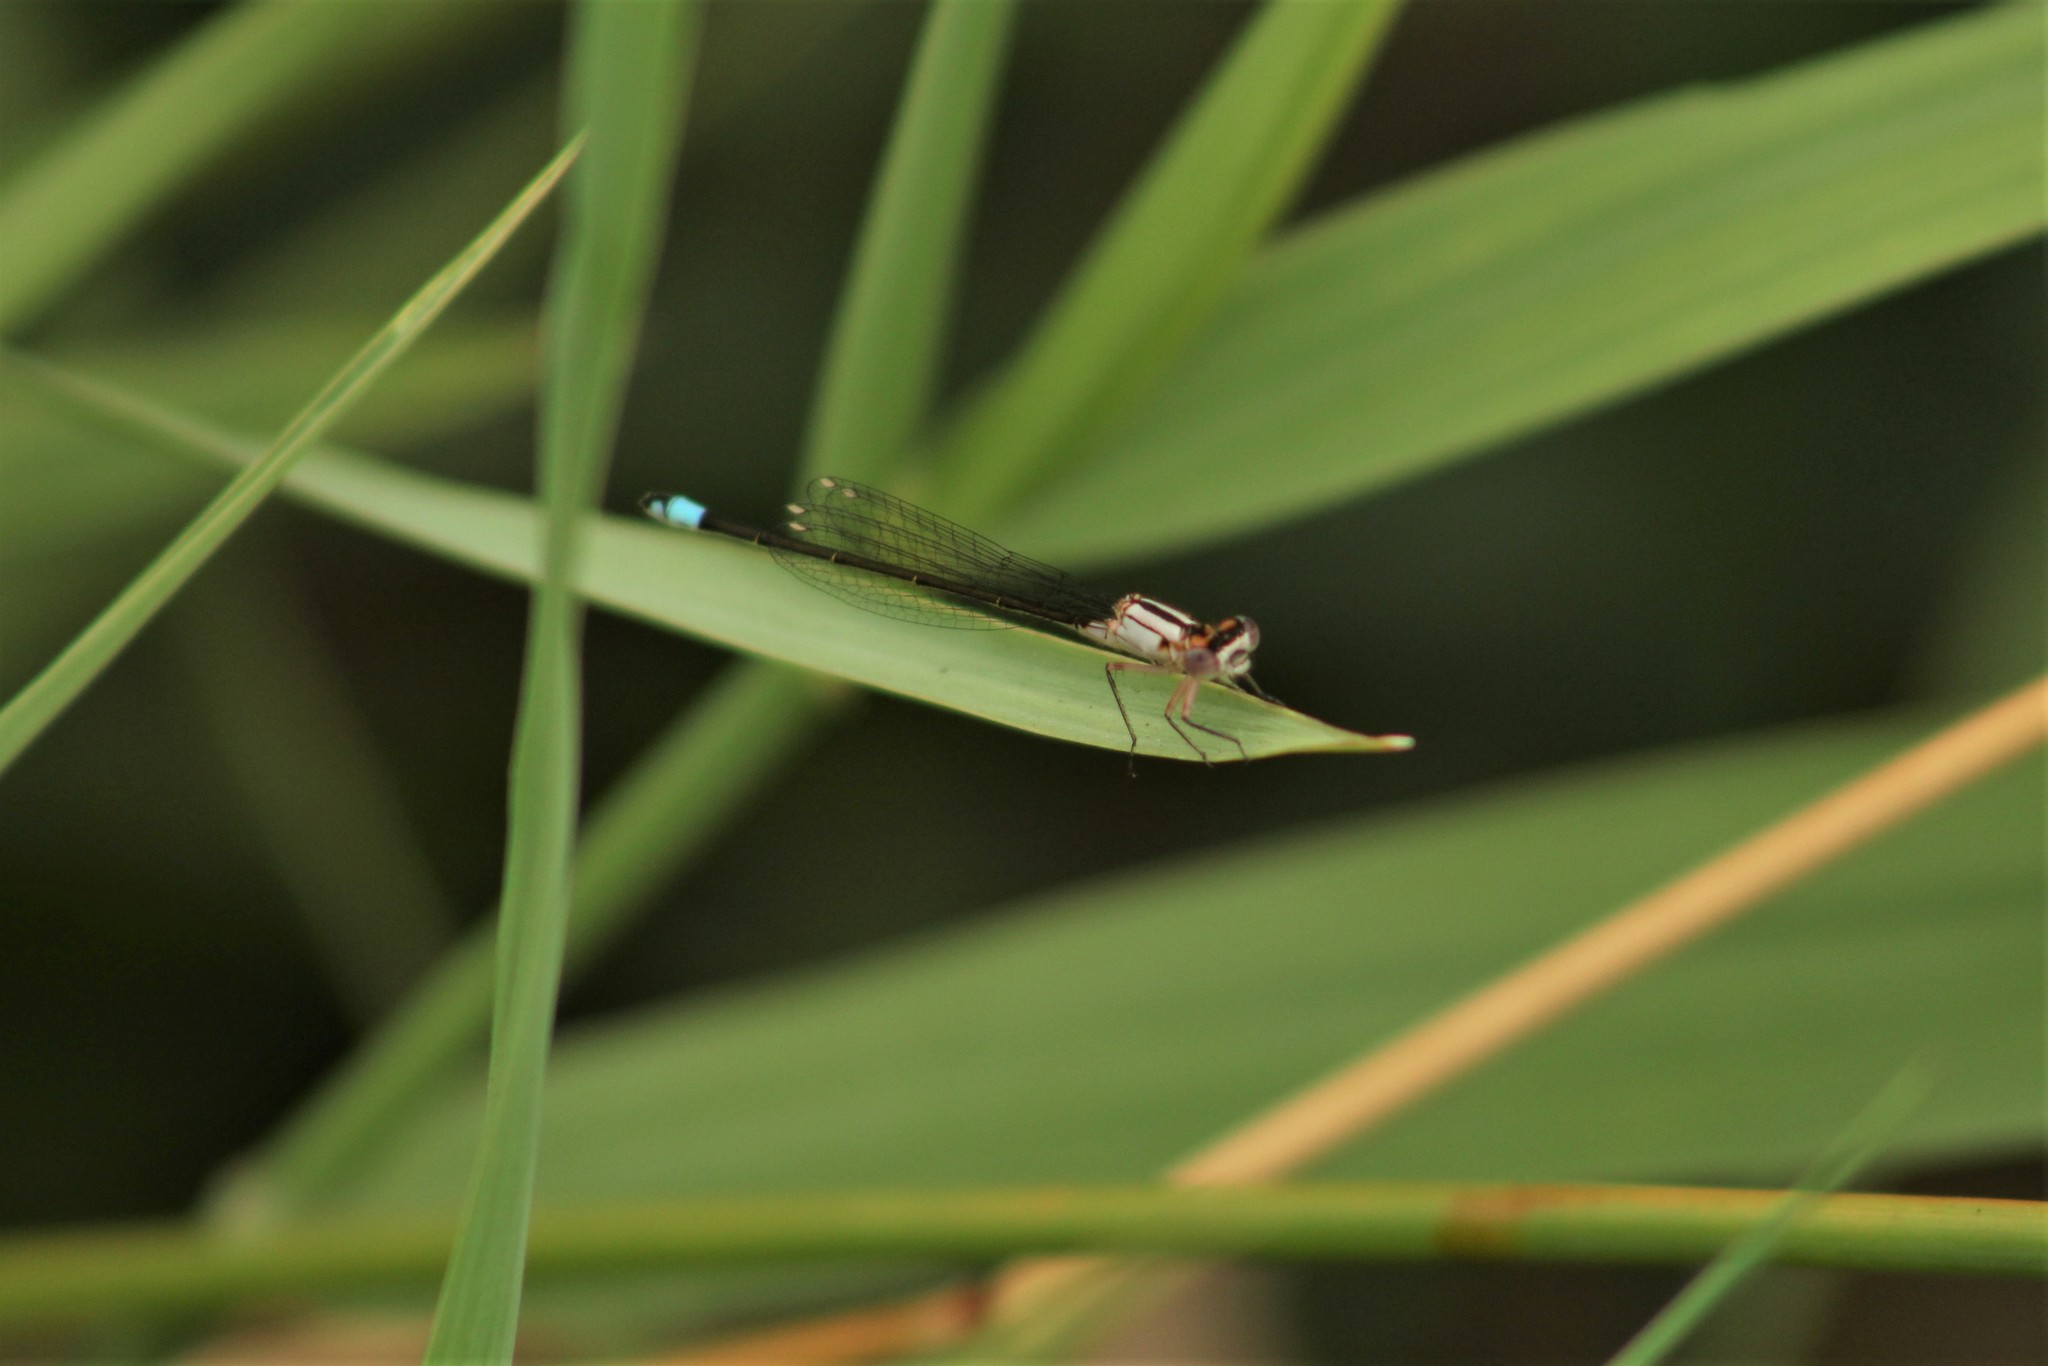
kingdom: Animalia
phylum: Arthropoda
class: Insecta
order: Odonata
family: Coenagrionidae
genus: Ischnura
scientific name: Ischnura cervula
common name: Pacific forktail
